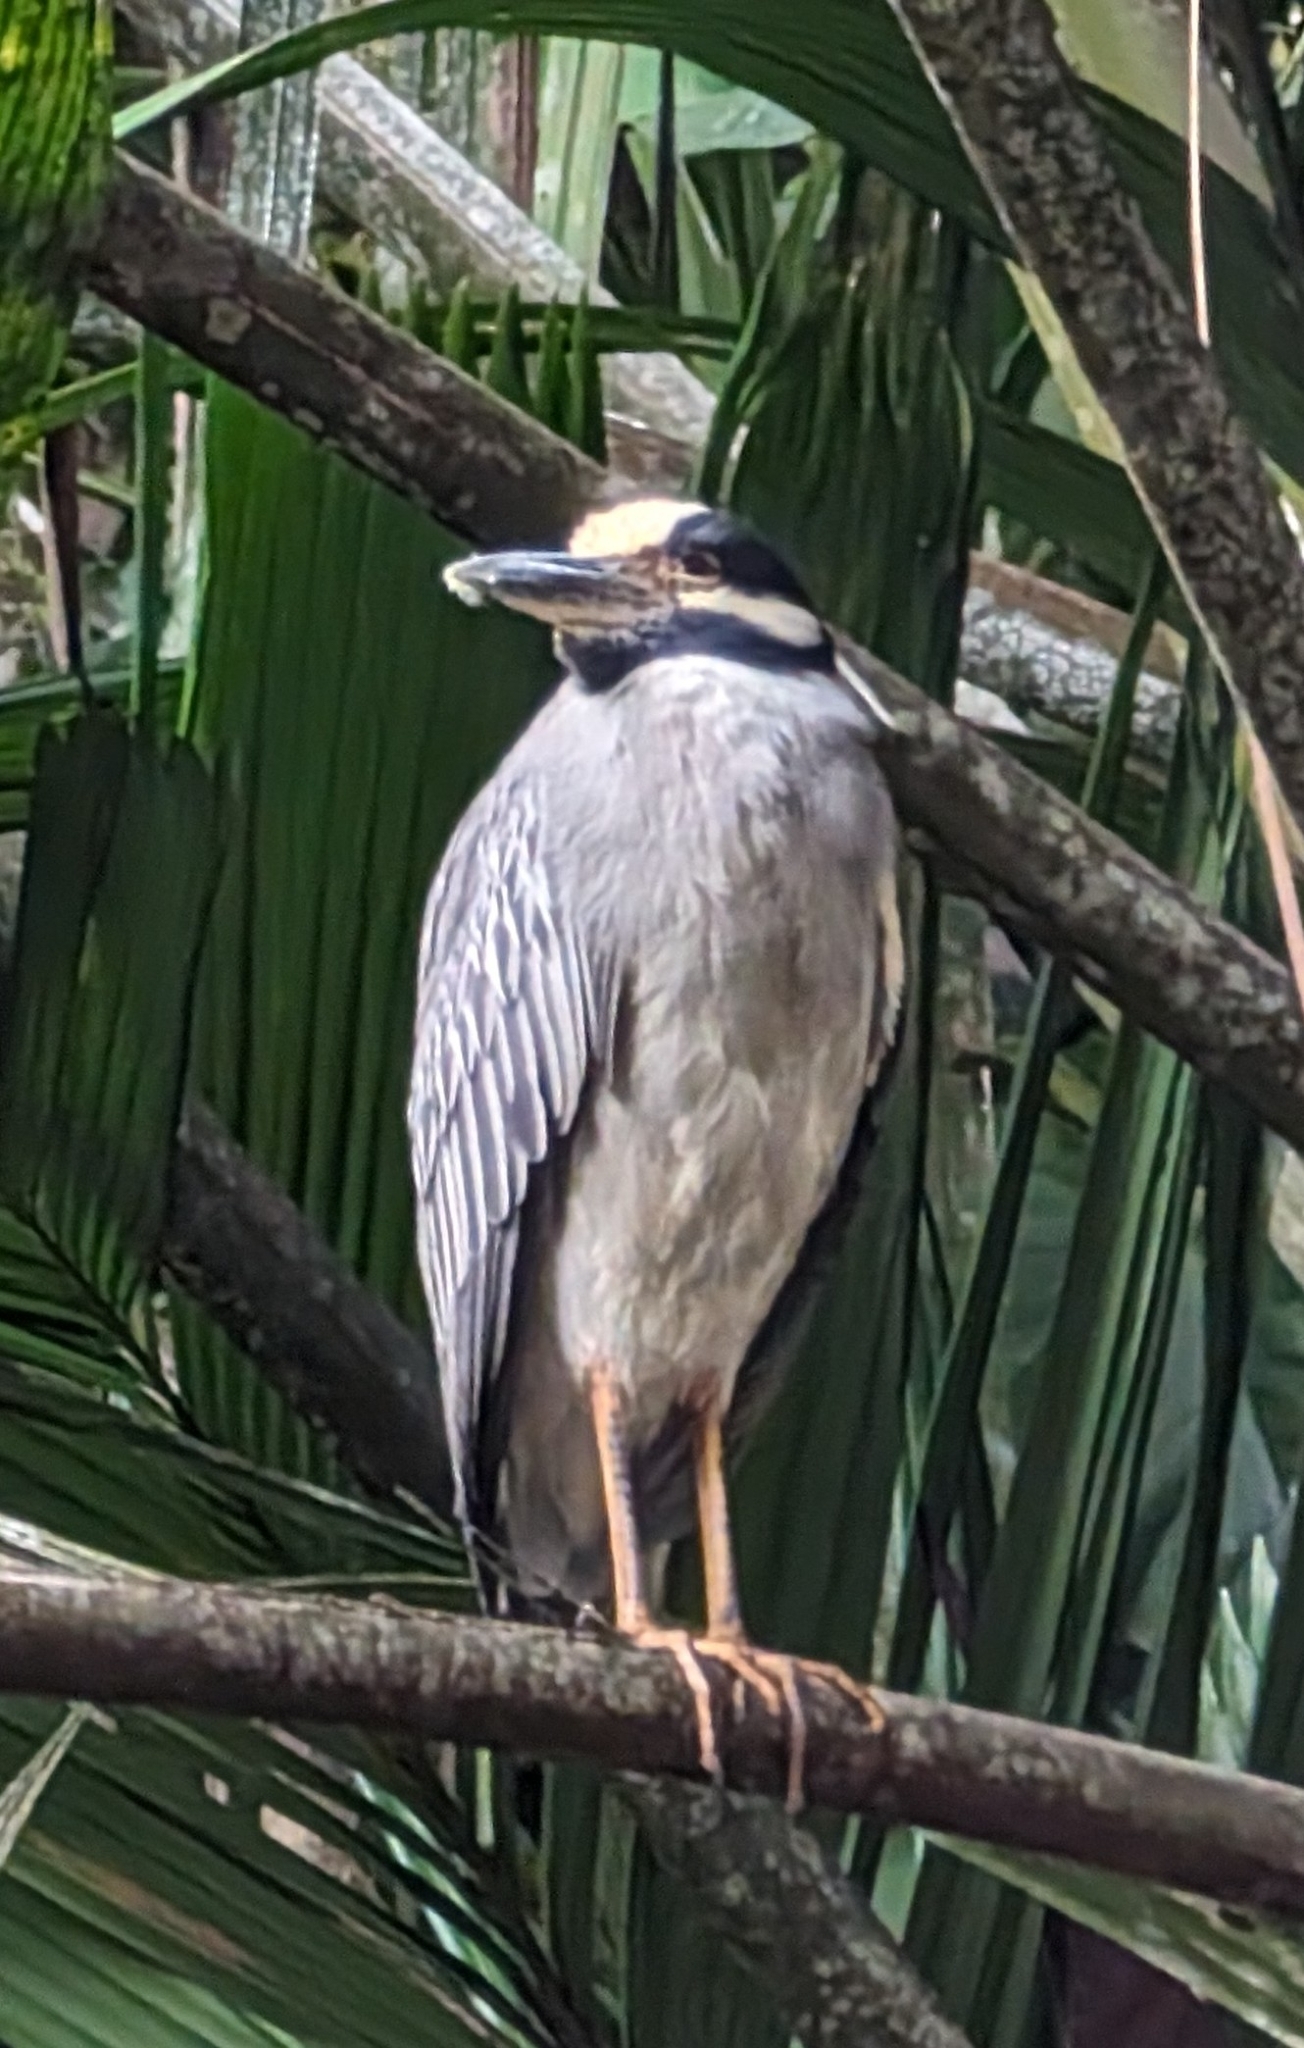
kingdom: Animalia
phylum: Chordata
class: Aves
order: Pelecaniformes
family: Ardeidae
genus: Nyctanassa
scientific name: Nyctanassa violacea
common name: Yellow-crowned night heron
